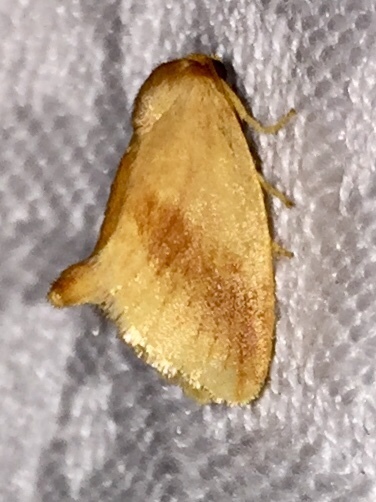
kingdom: Animalia
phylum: Arthropoda
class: Insecta
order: Lepidoptera
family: Limacodidae
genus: Tortricidia
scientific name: Tortricidia testacea
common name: Early button slug moth
